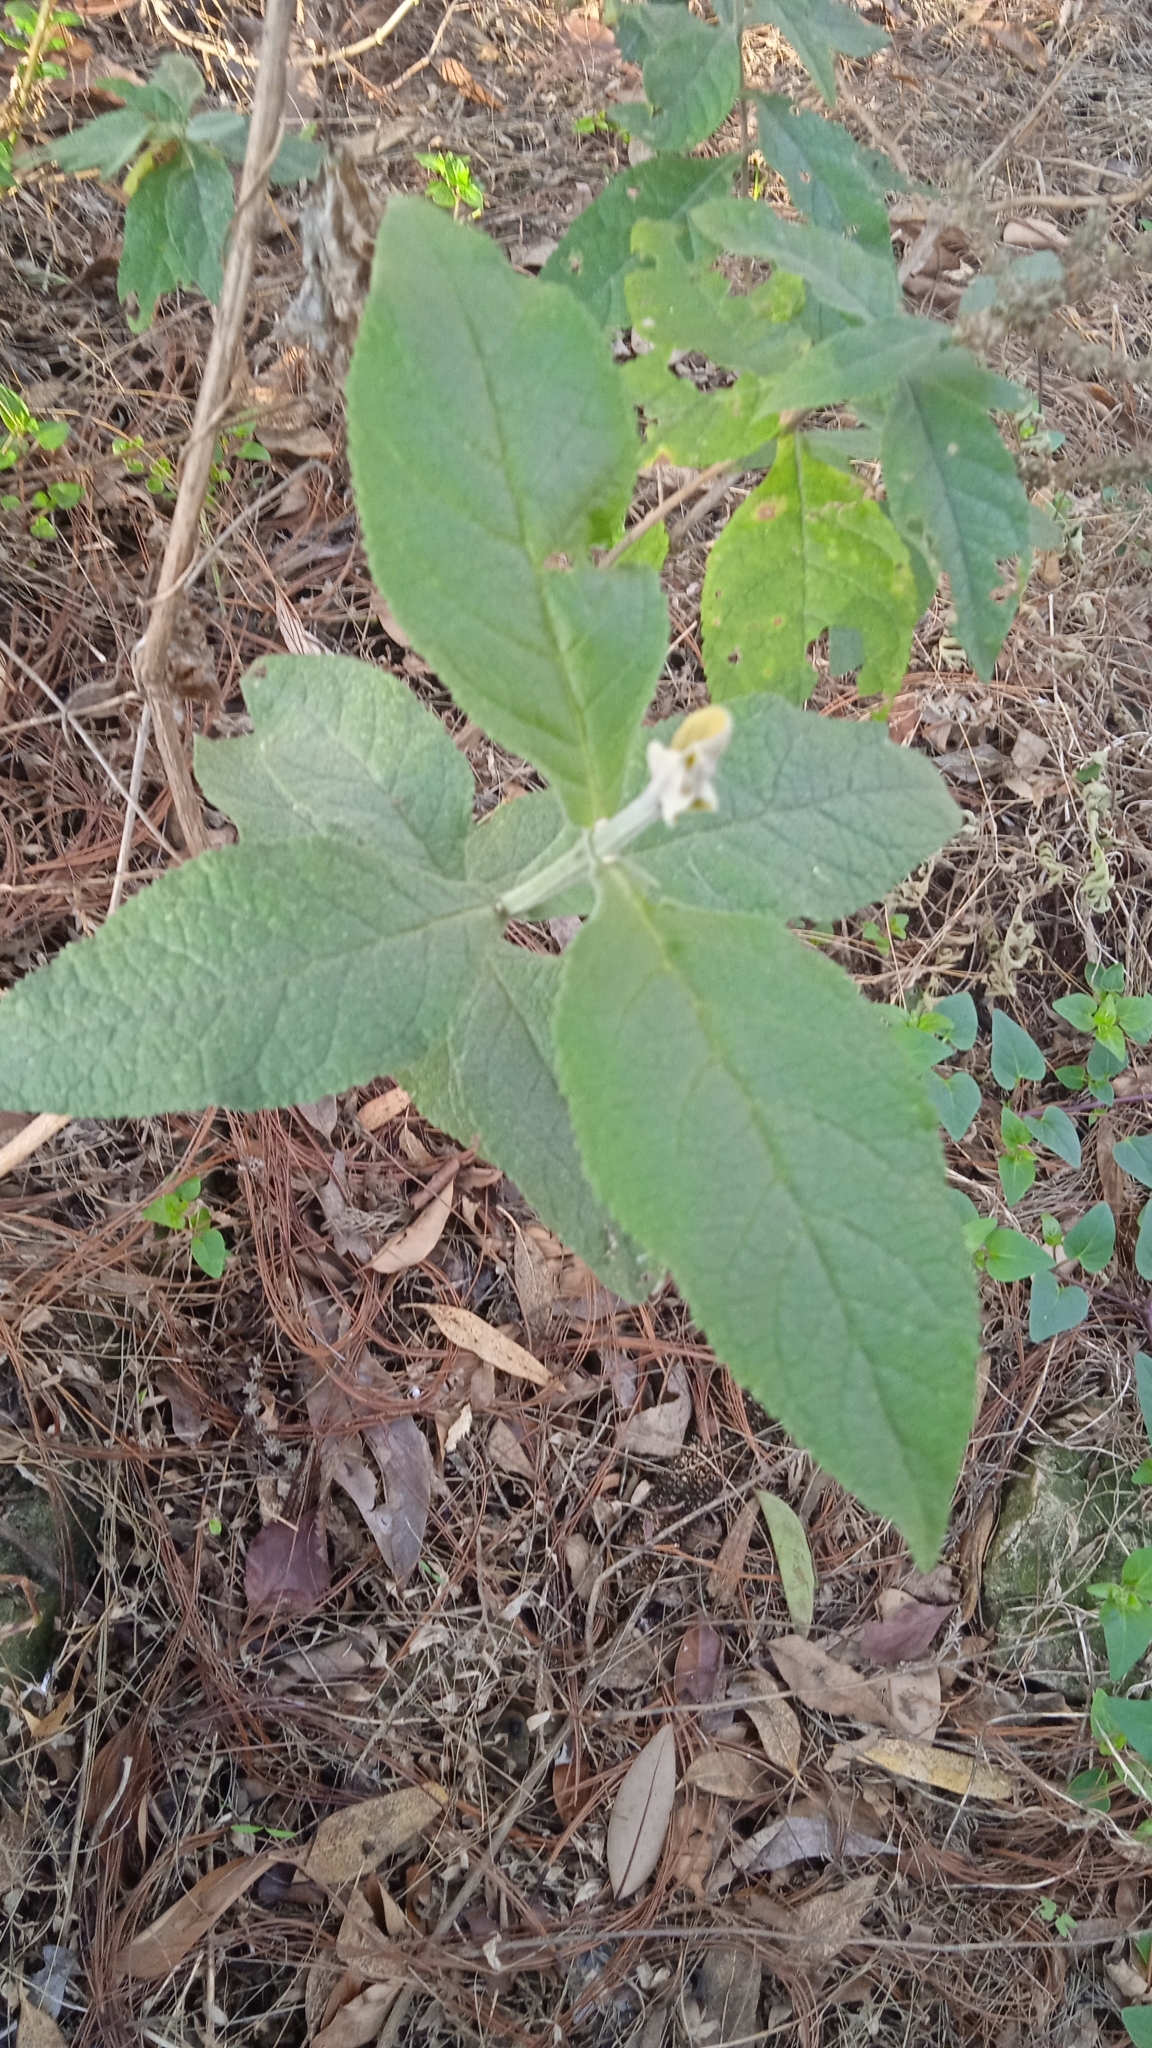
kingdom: Plantae
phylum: Tracheophyta
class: Magnoliopsida
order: Lamiales
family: Scrophulariaceae
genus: Buddleja
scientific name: Buddleja cordata
